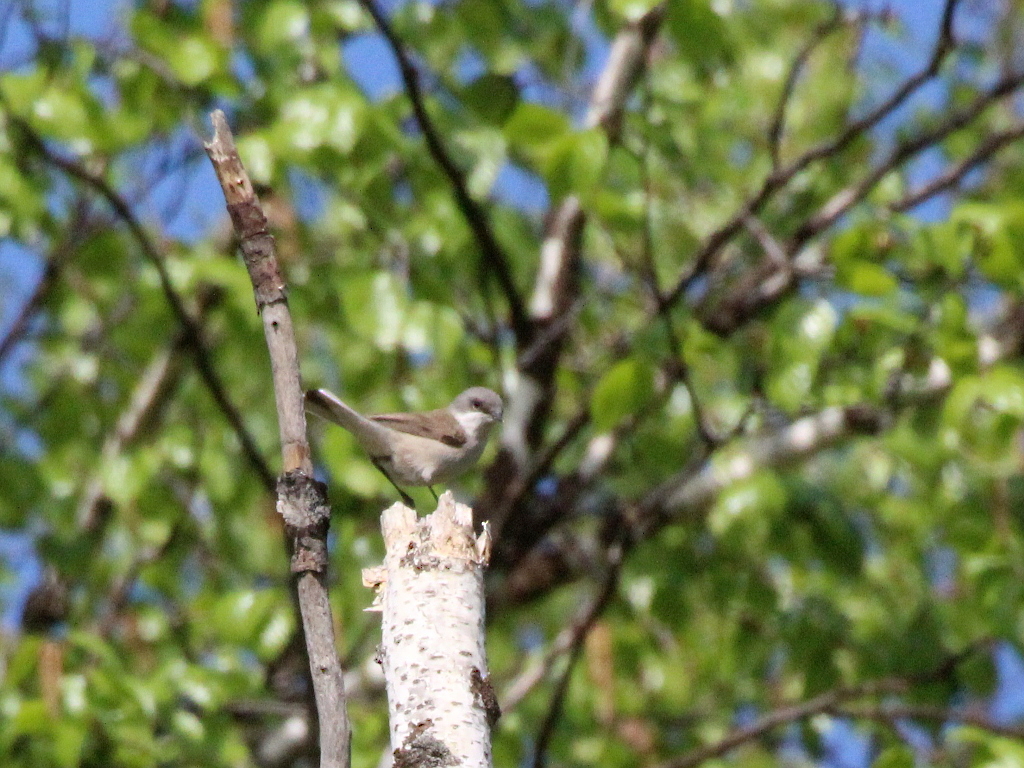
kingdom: Animalia
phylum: Chordata
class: Aves
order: Passeriformes
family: Sylviidae
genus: Sylvia
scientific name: Sylvia curruca
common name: Lesser whitethroat
